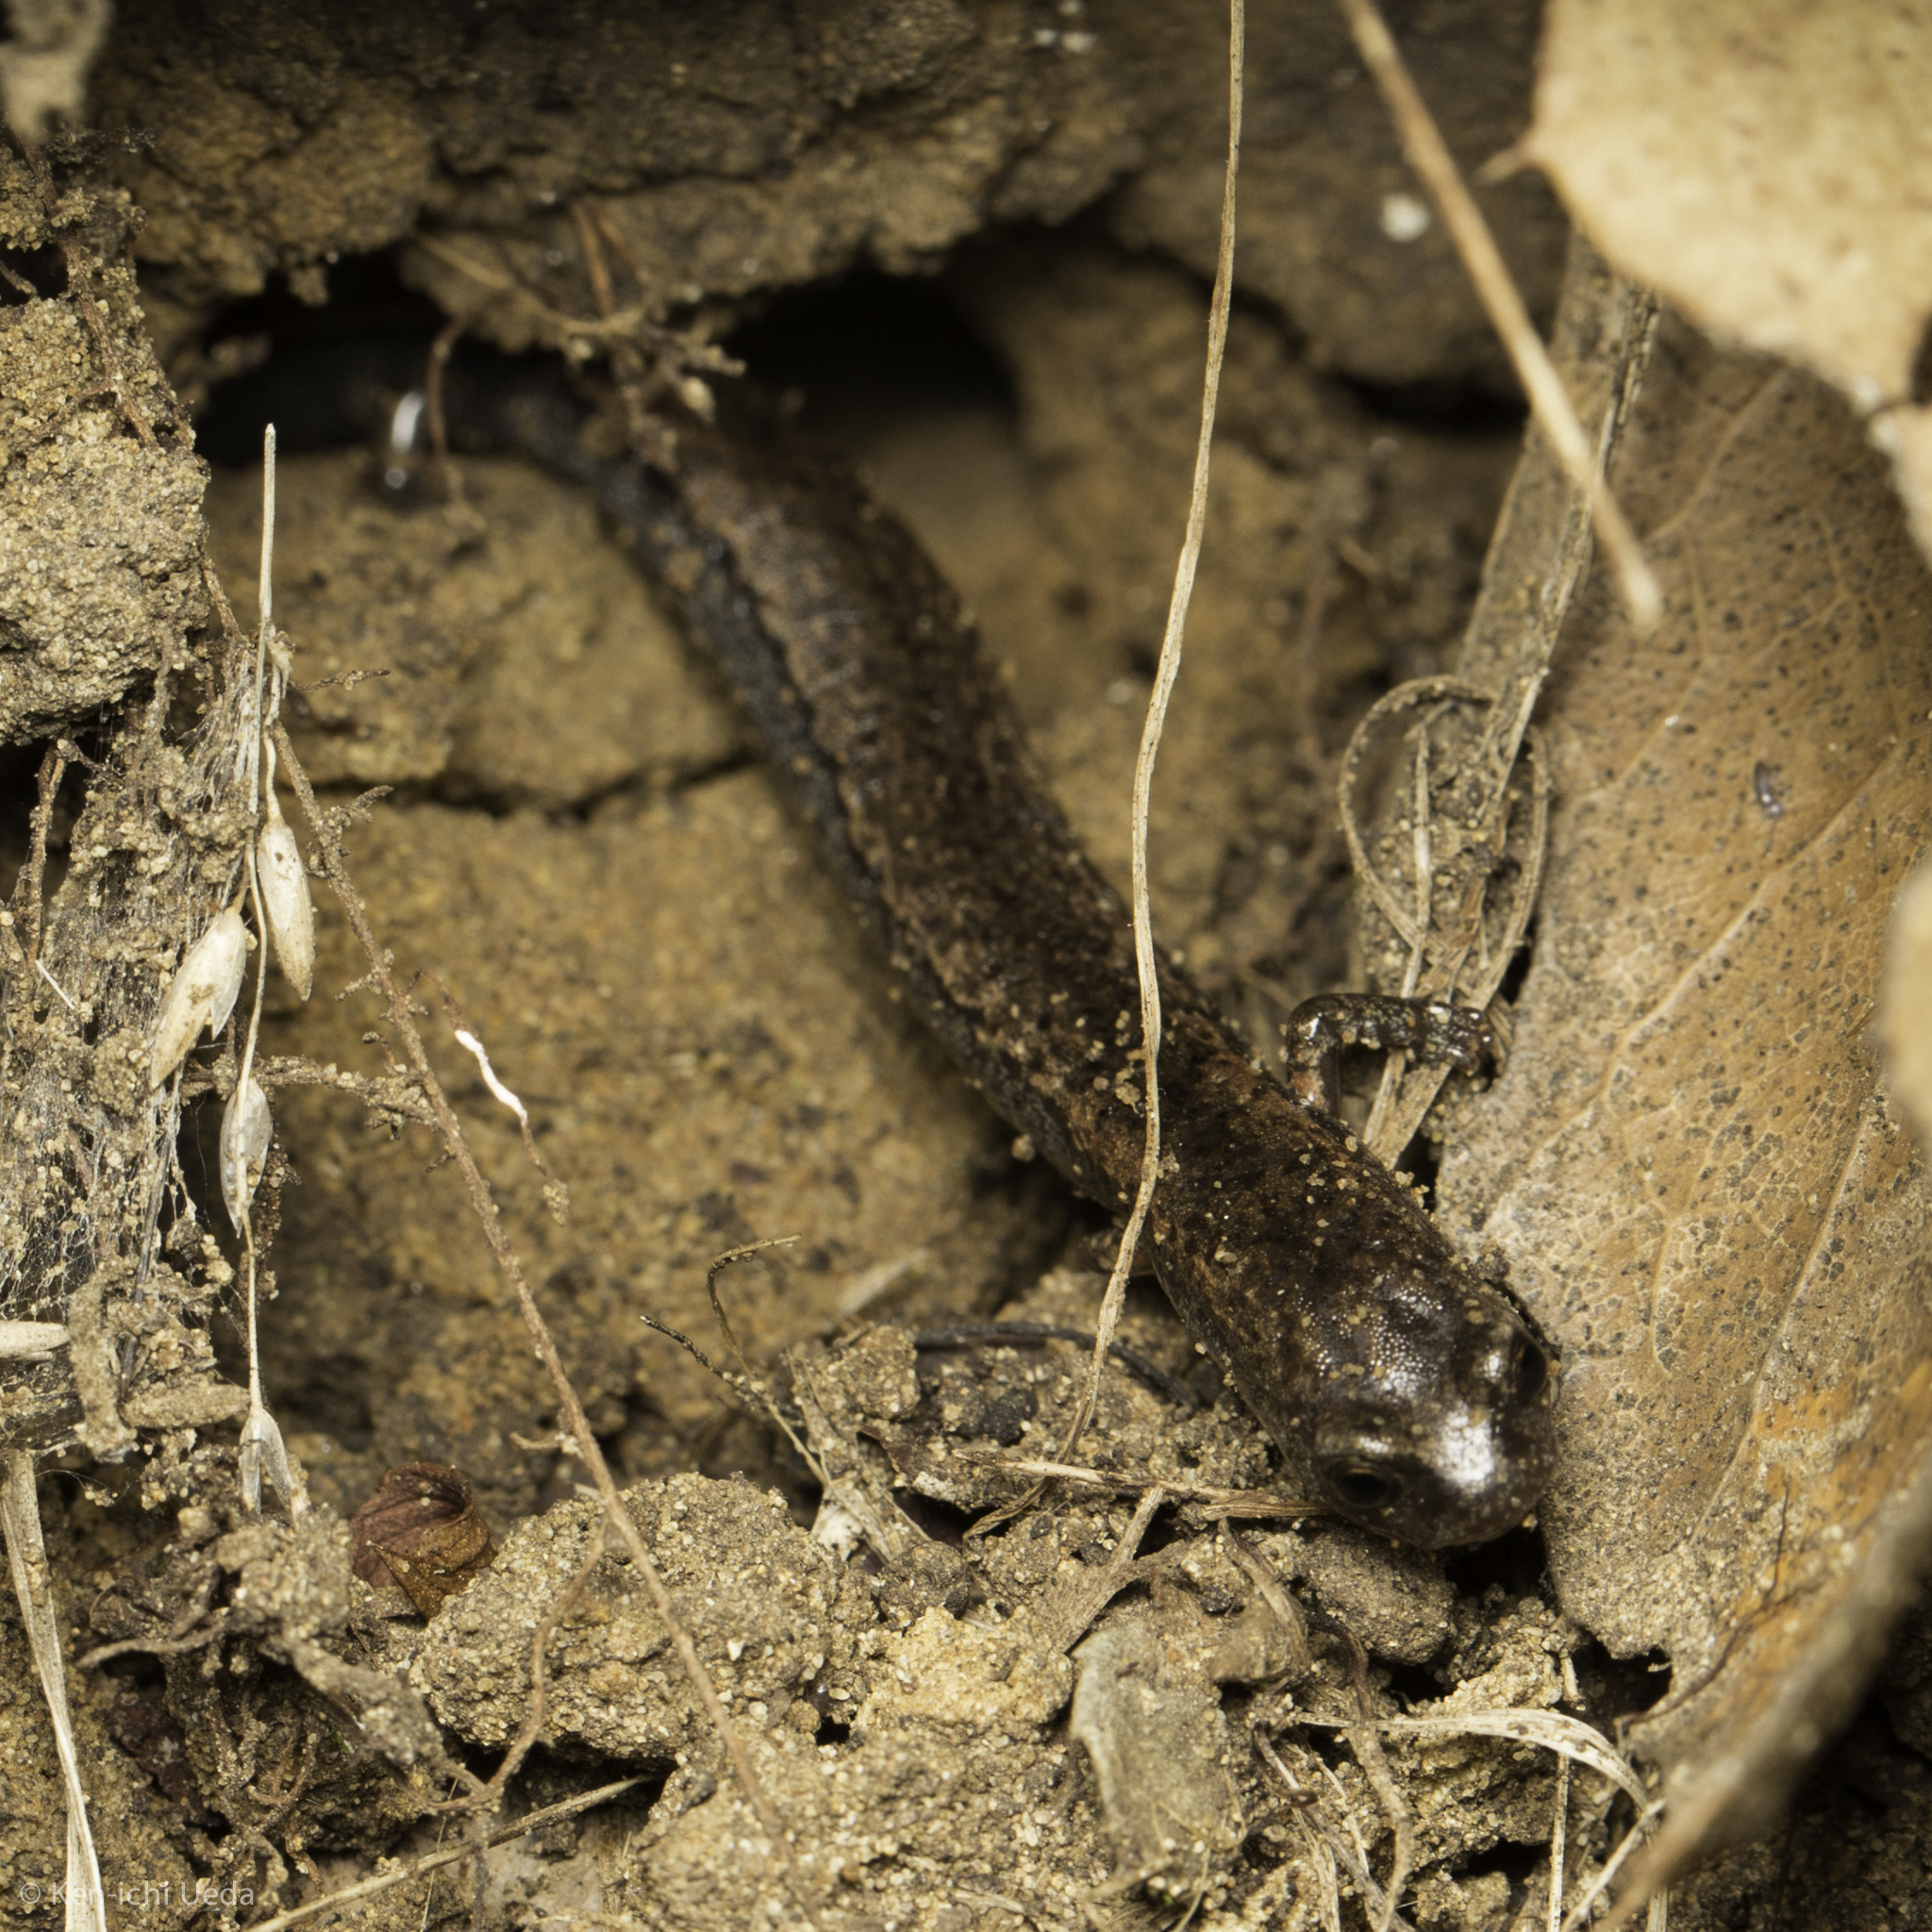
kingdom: Animalia
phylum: Chordata
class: Amphibia
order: Caudata
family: Plethodontidae
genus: Batrachoseps
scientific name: Batrachoseps attenuatus
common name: California slender salamander
